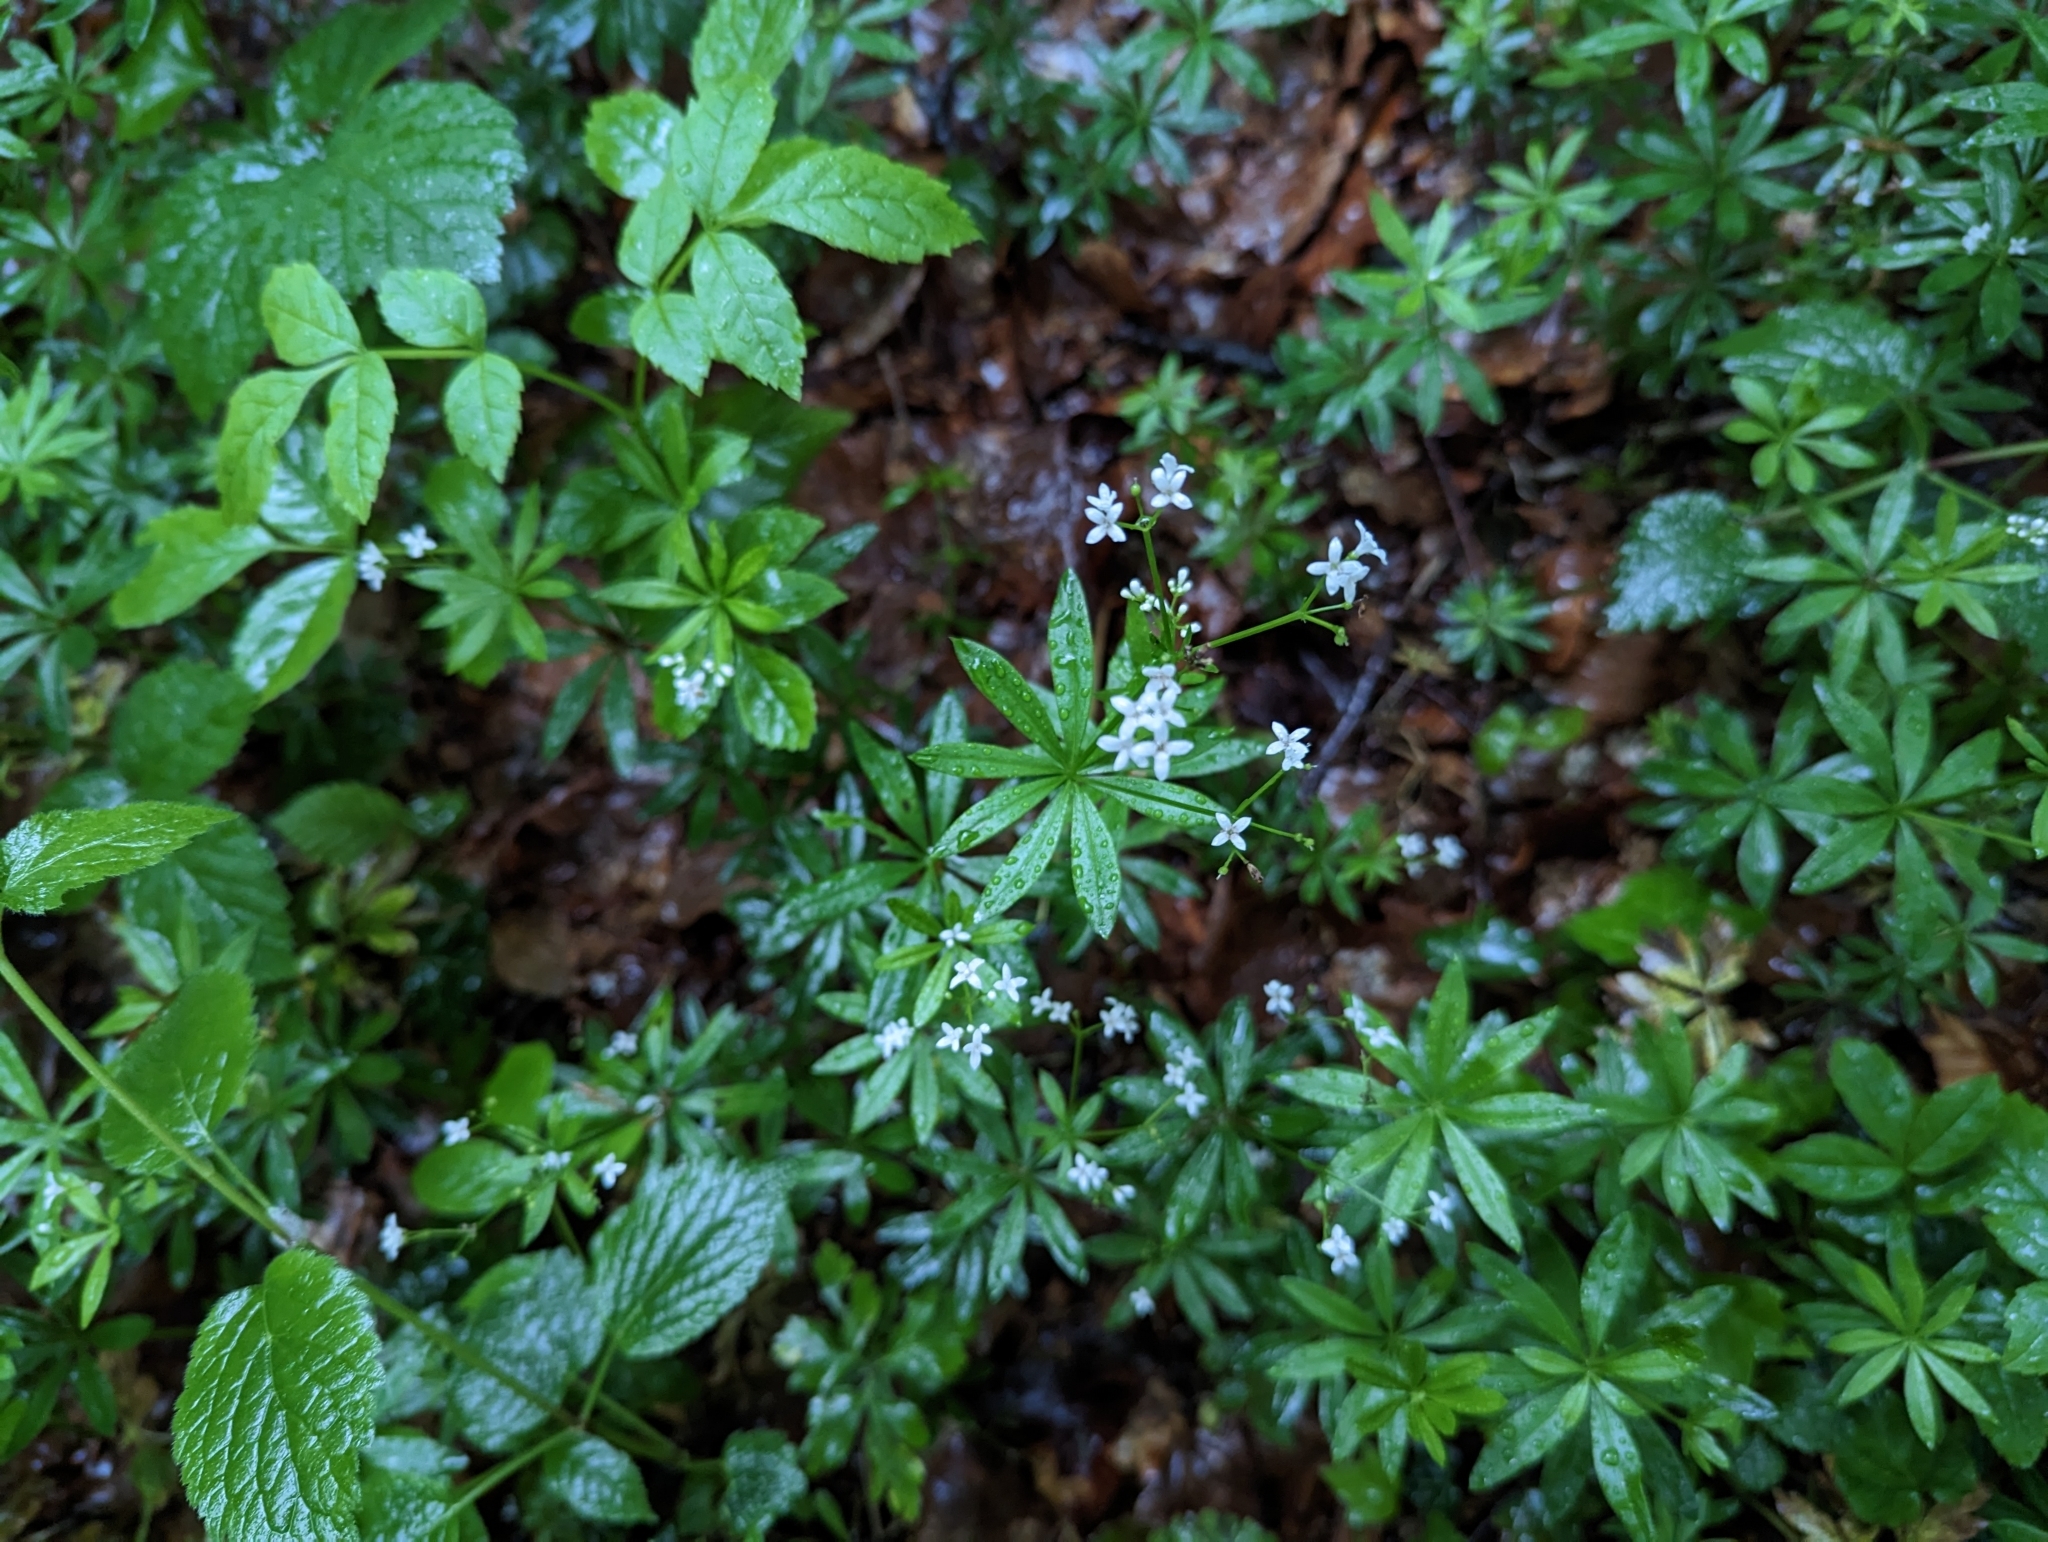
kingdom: Plantae
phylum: Tracheophyta
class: Magnoliopsida
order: Gentianales
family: Rubiaceae
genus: Galium
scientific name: Galium odoratum
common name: Sweet woodruff
